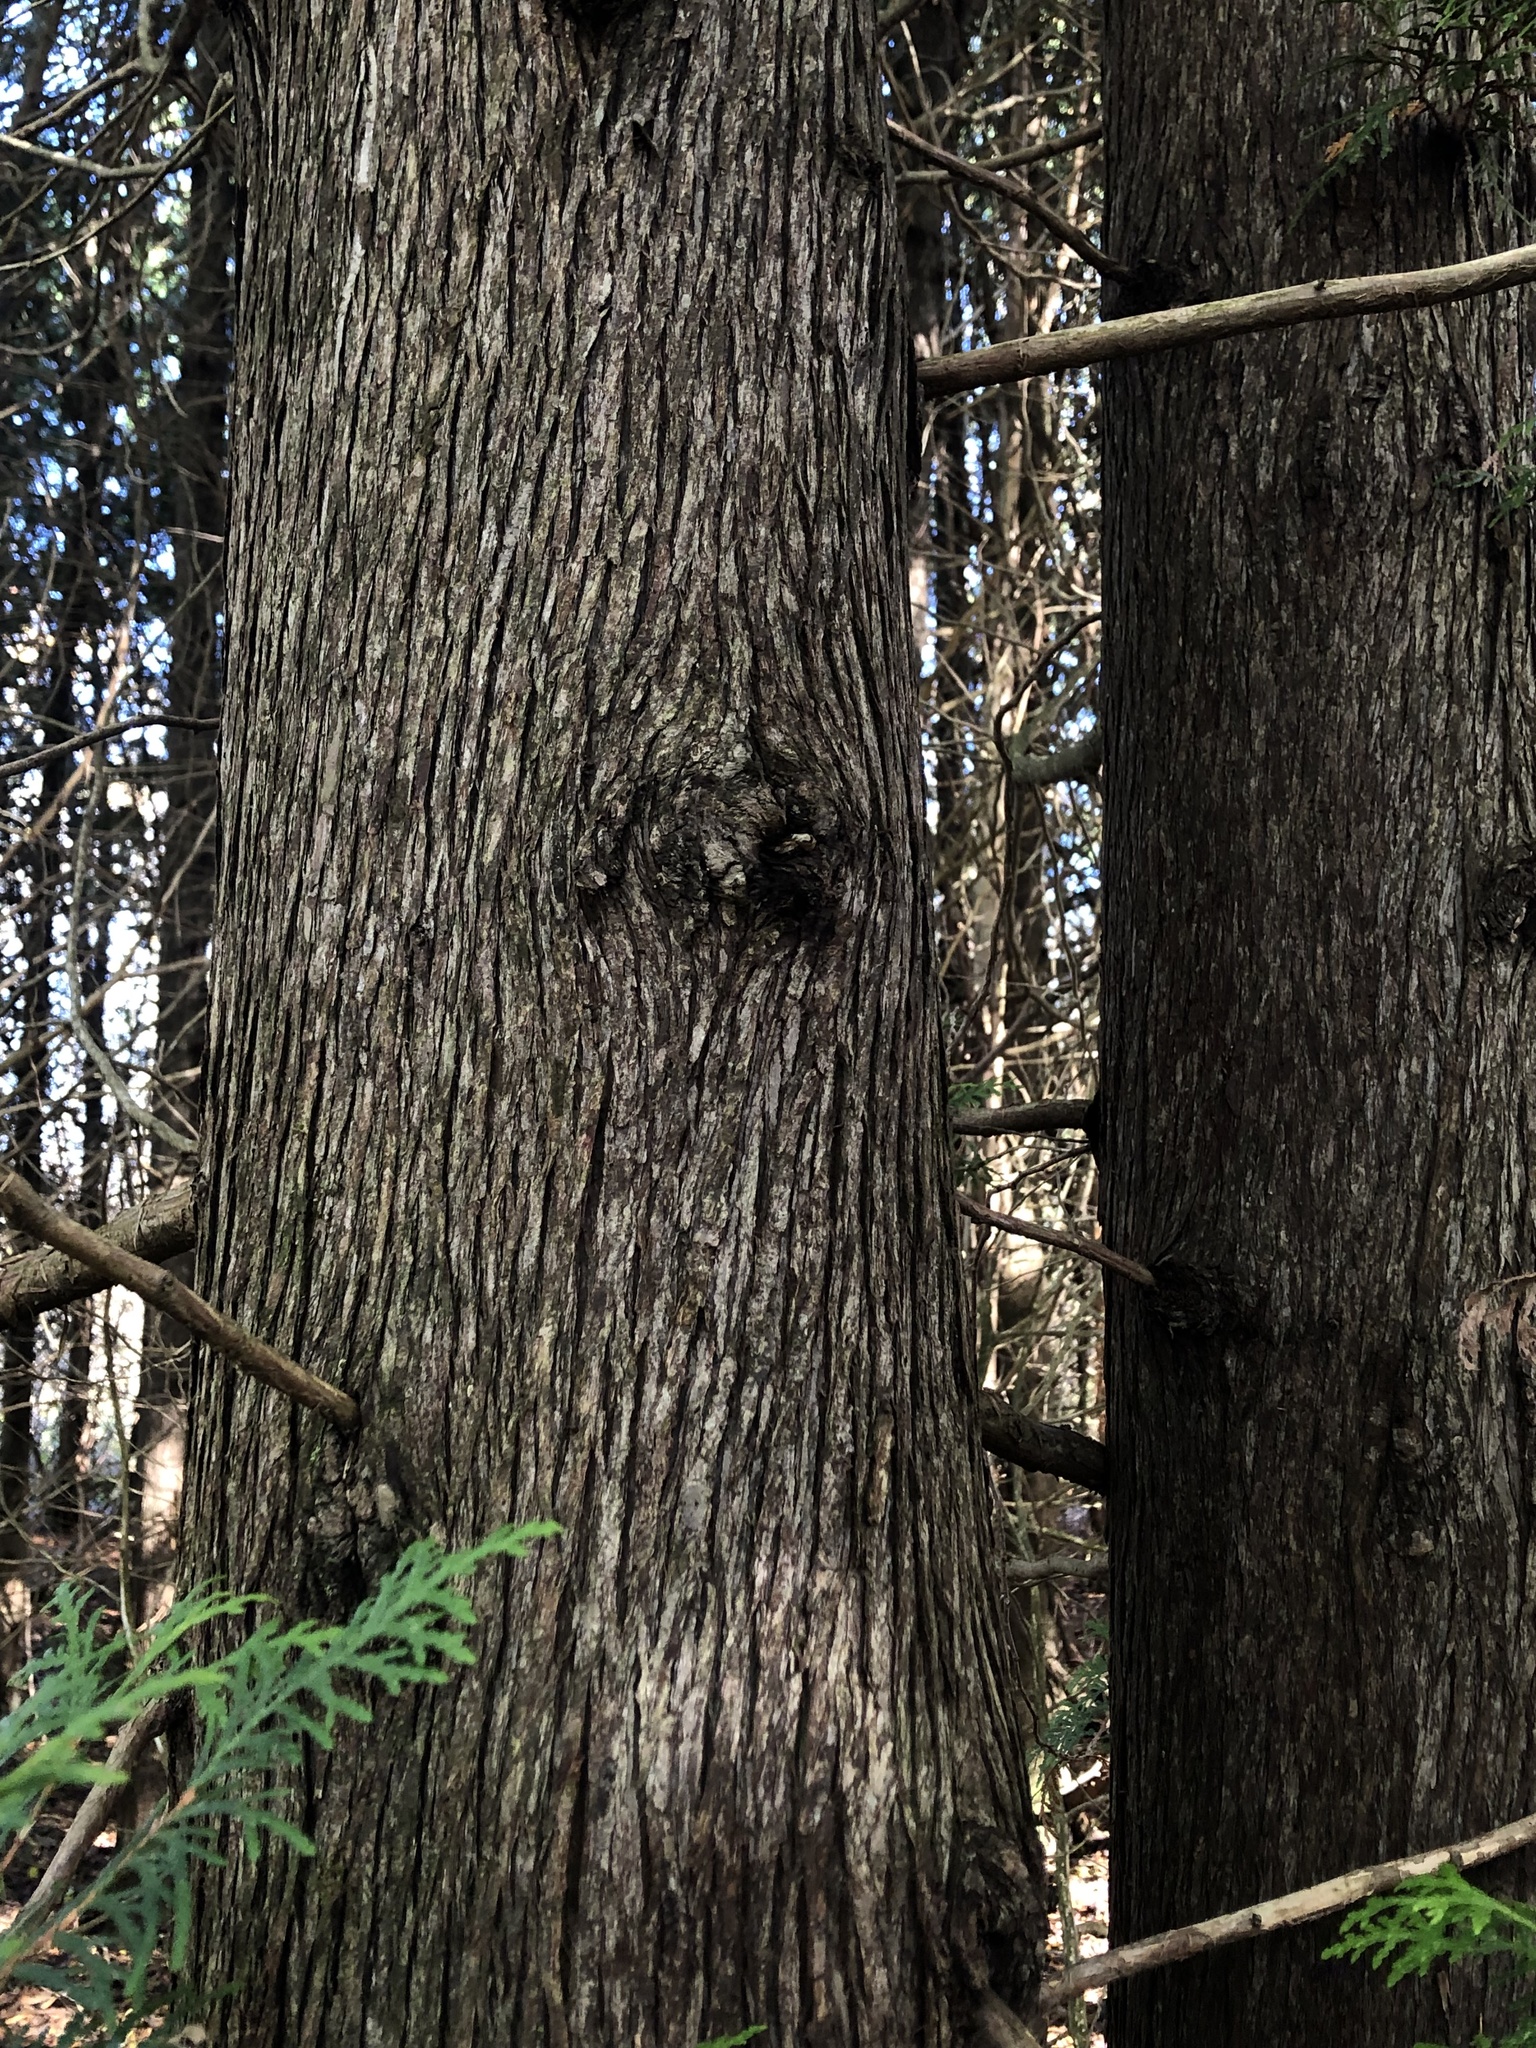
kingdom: Plantae
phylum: Tracheophyta
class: Pinopsida
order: Pinales
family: Cupressaceae
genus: Thuja
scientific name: Thuja occidentalis
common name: Northern white-cedar
